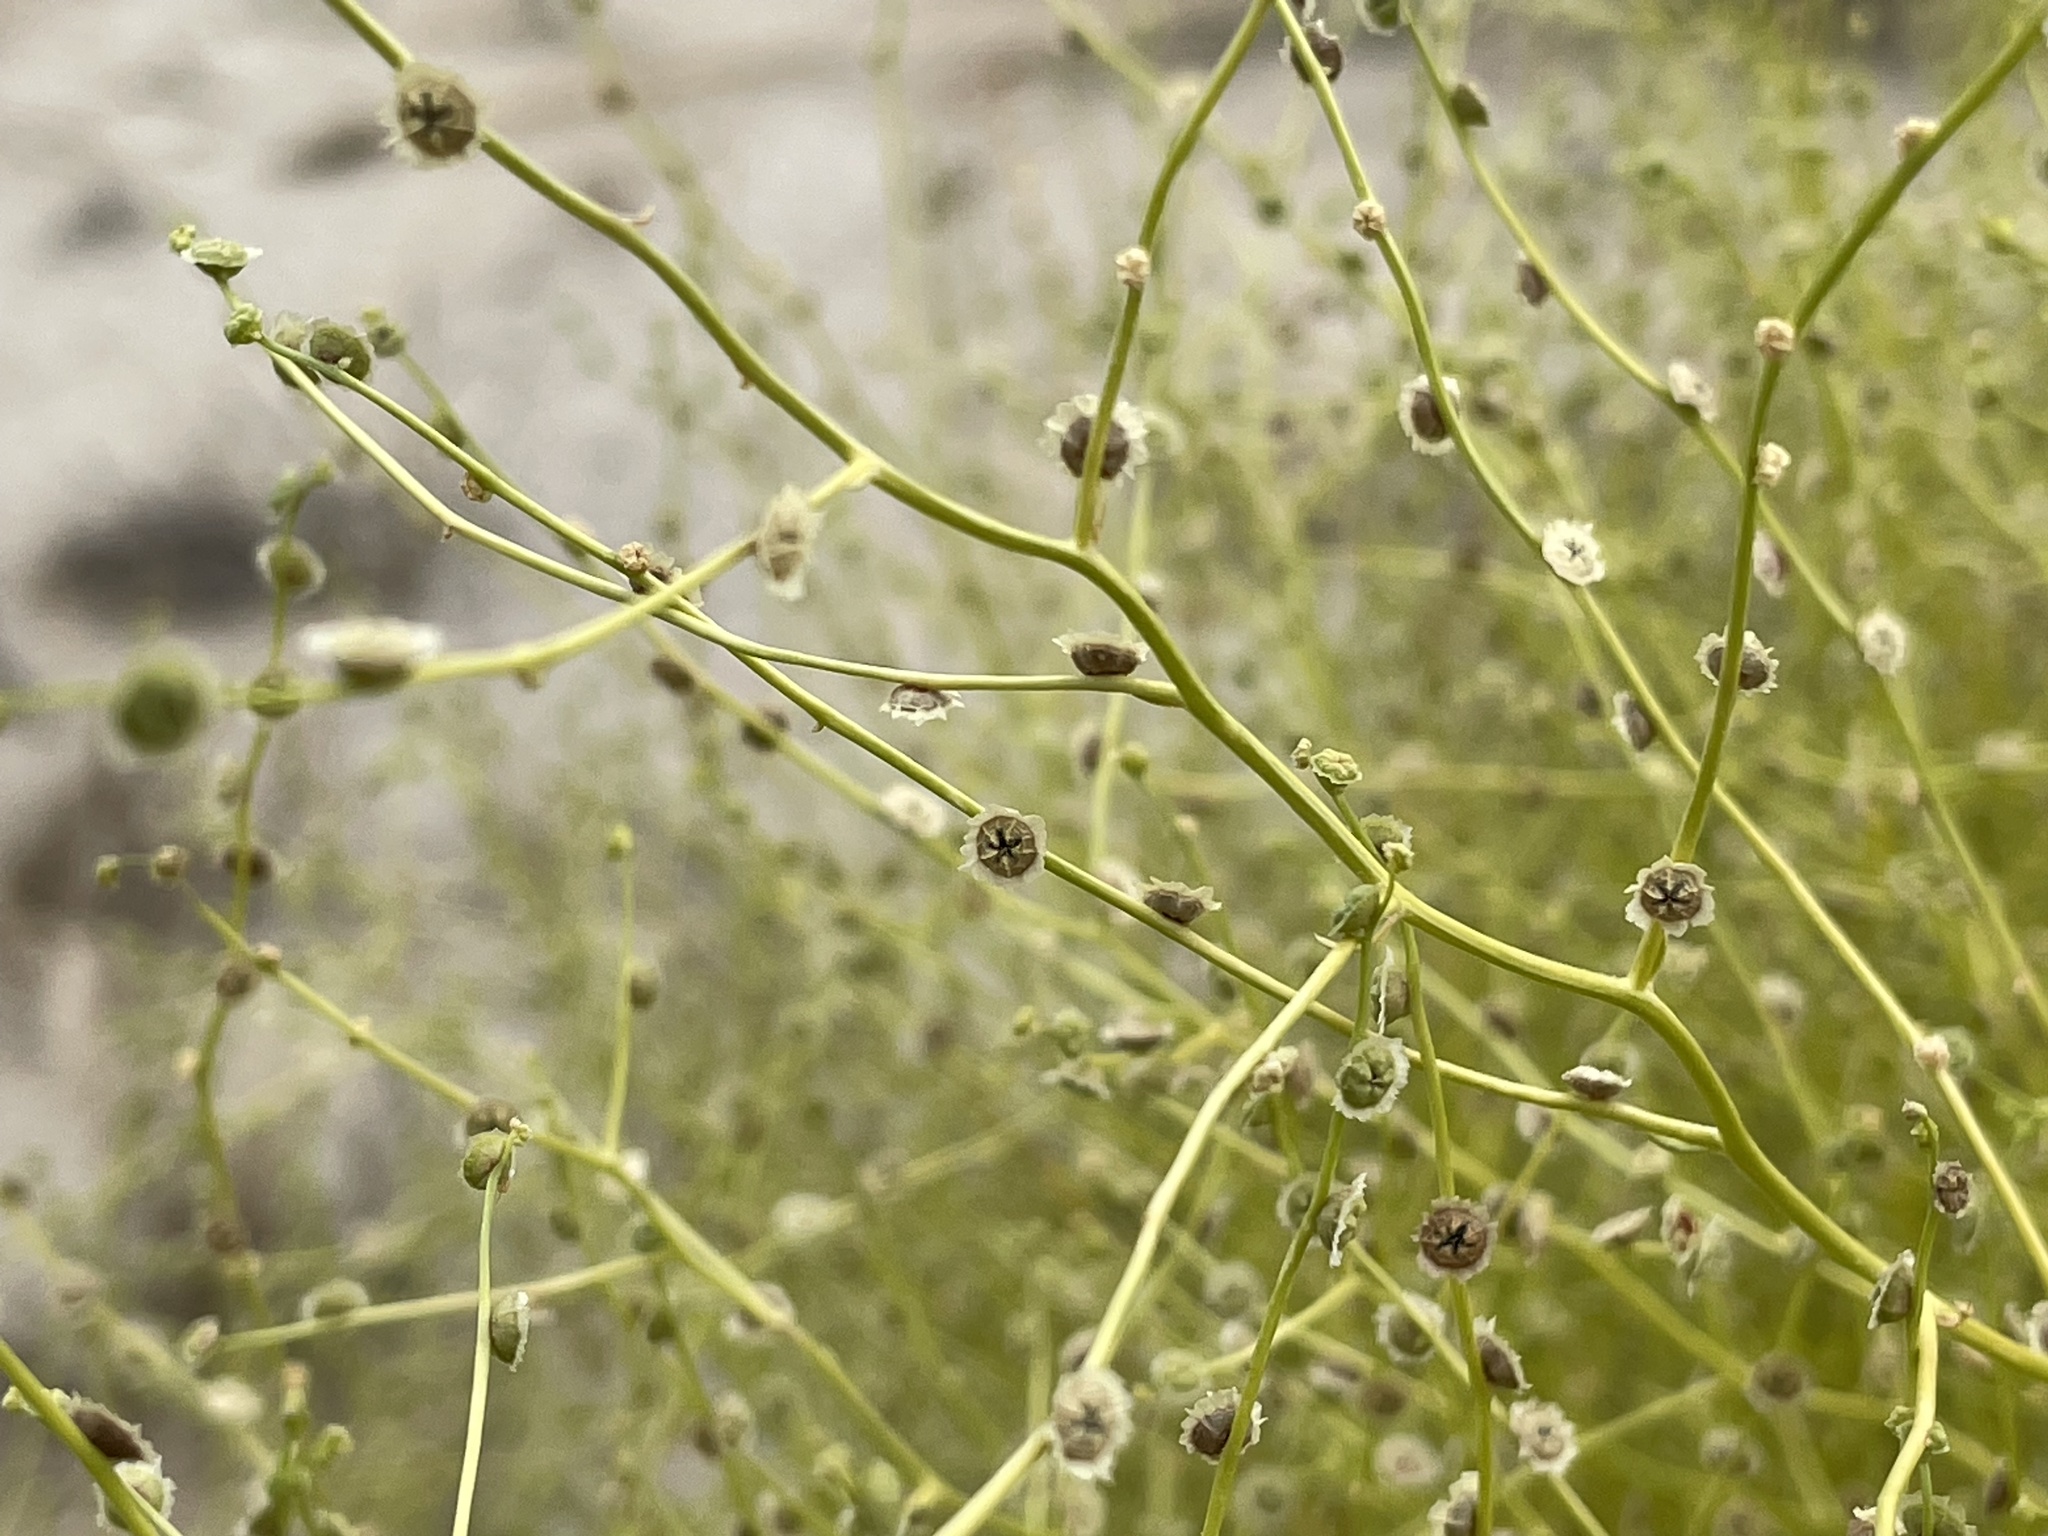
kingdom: Plantae
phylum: Tracheophyta
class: Magnoliopsida
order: Caryophyllales
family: Amaranthaceae
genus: Dysphania
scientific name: Dysphania atriplicifolia
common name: Plains tumbleweed
